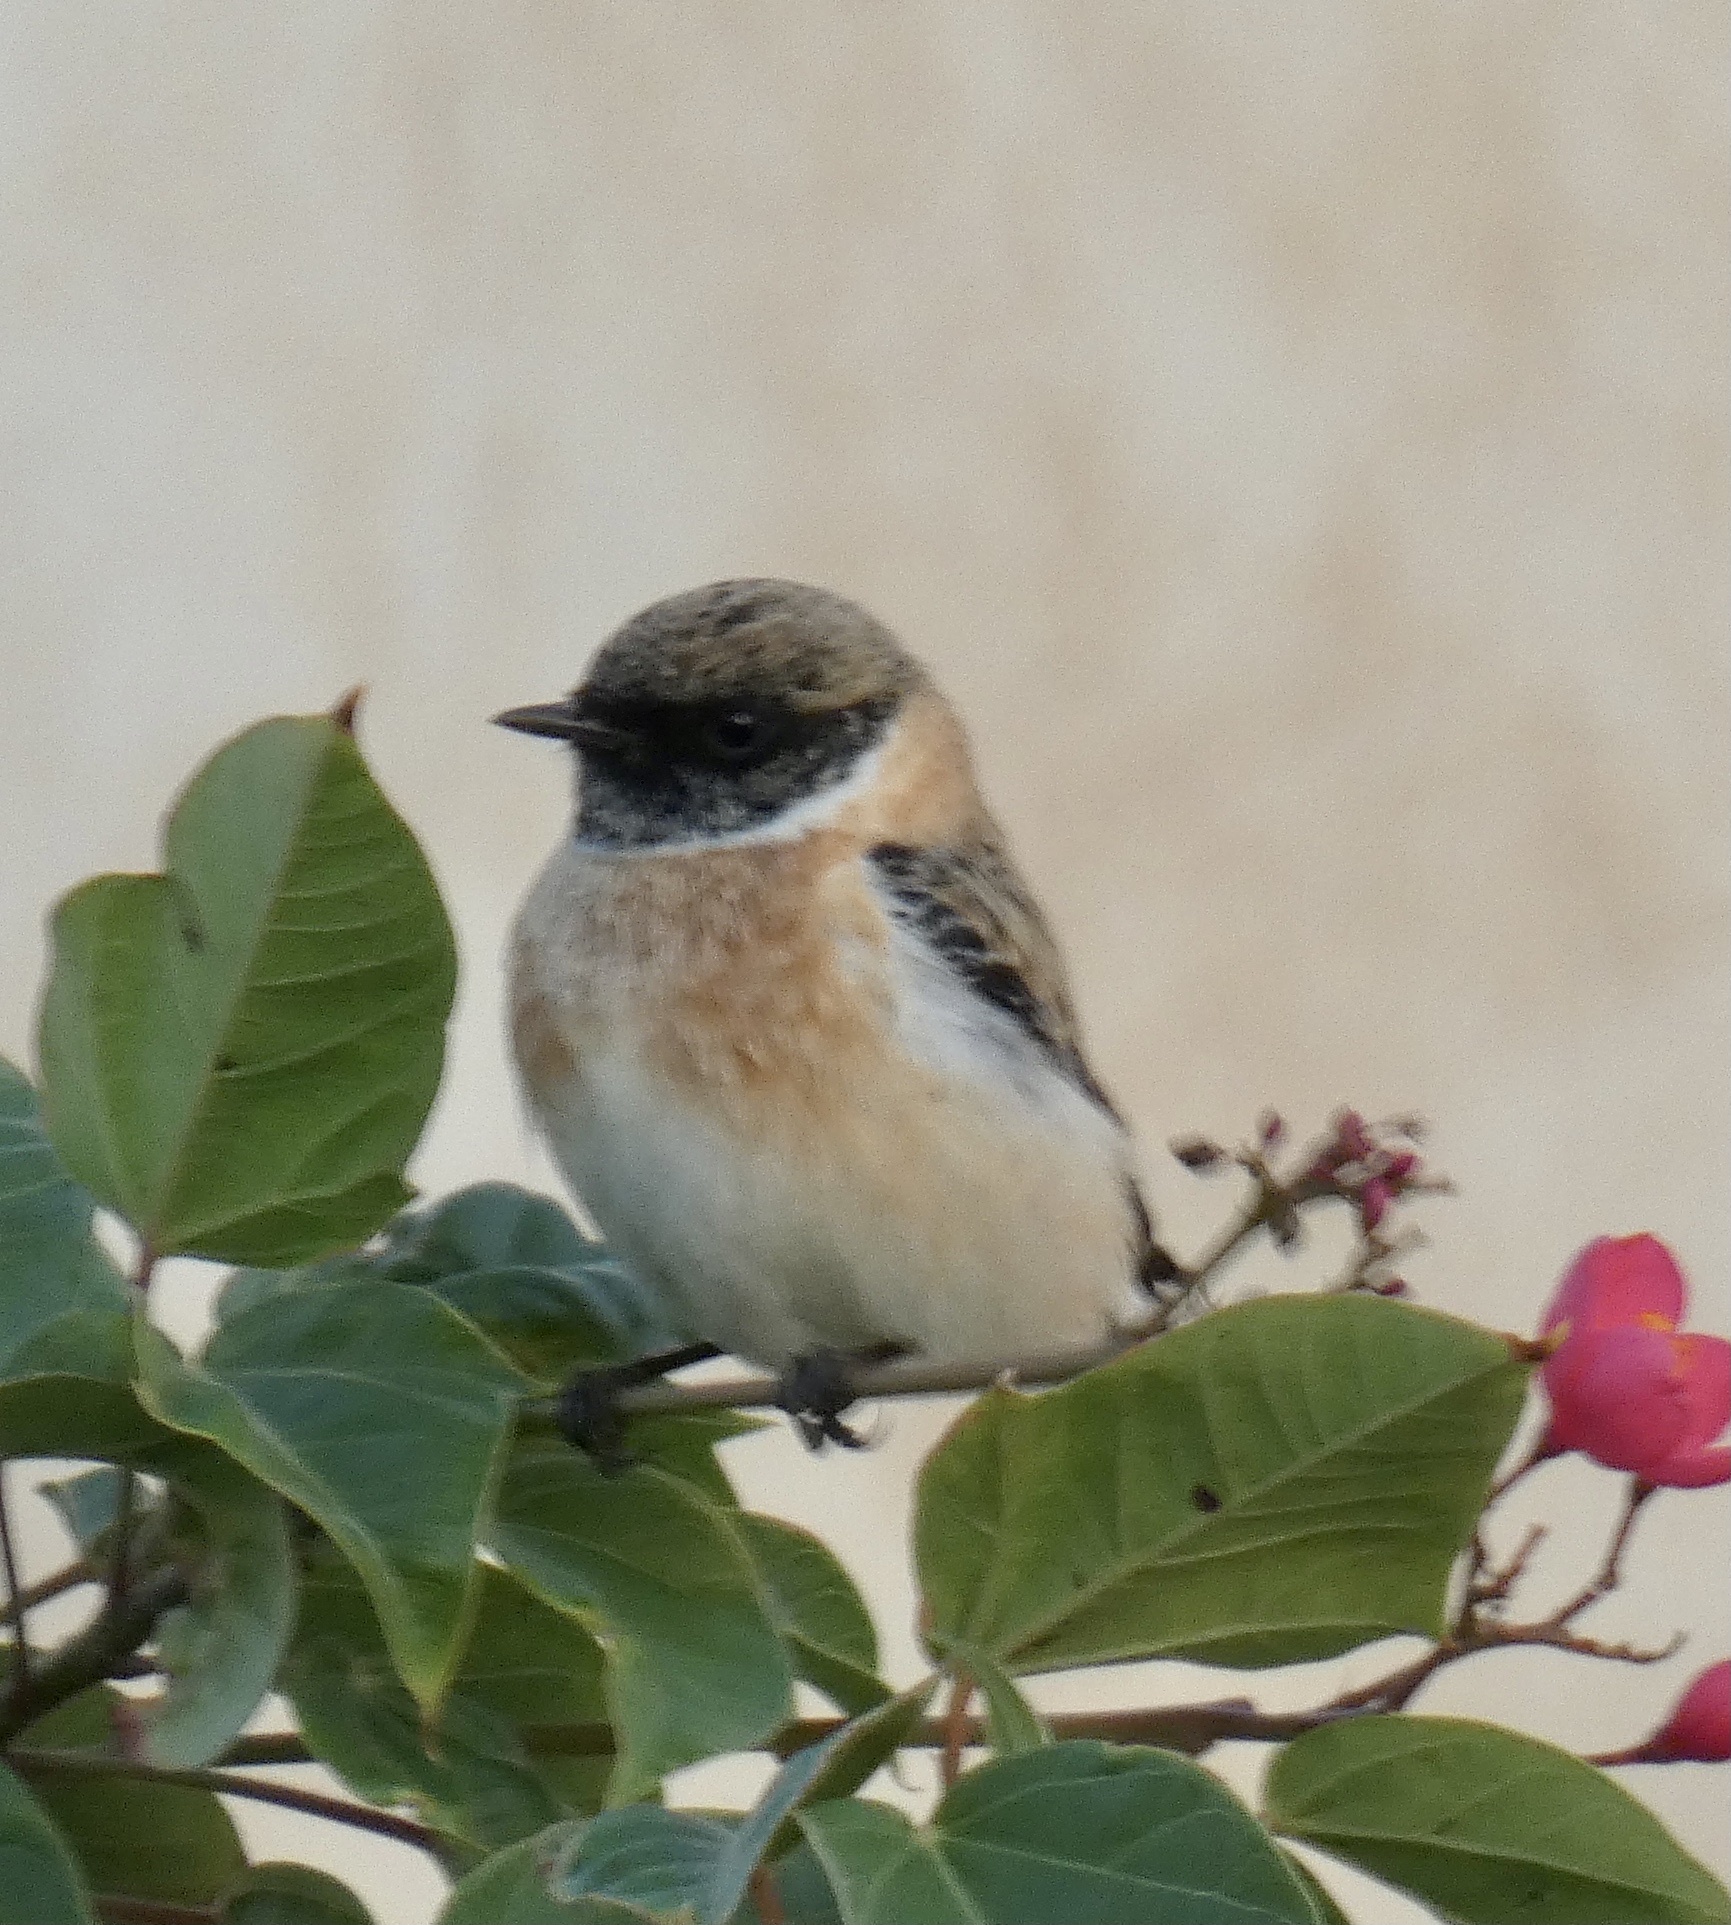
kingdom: Animalia
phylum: Chordata
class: Aves
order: Passeriformes
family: Muscicapidae
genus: Saxicola
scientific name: Saxicola maurus
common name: Siberian stonechat
